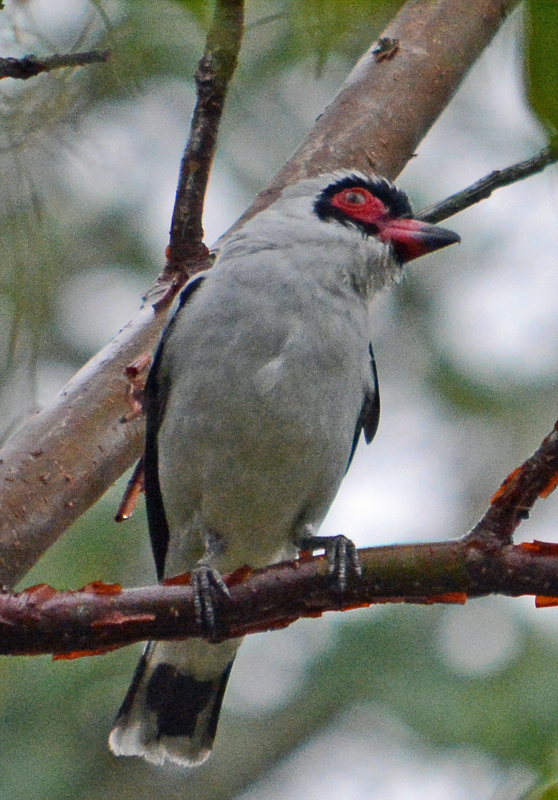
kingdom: Animalia
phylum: Chordata
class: Aves
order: Passeriformes
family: Cotingidae
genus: Tityra
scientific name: Tityra semifasciata
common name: Masked tityra
